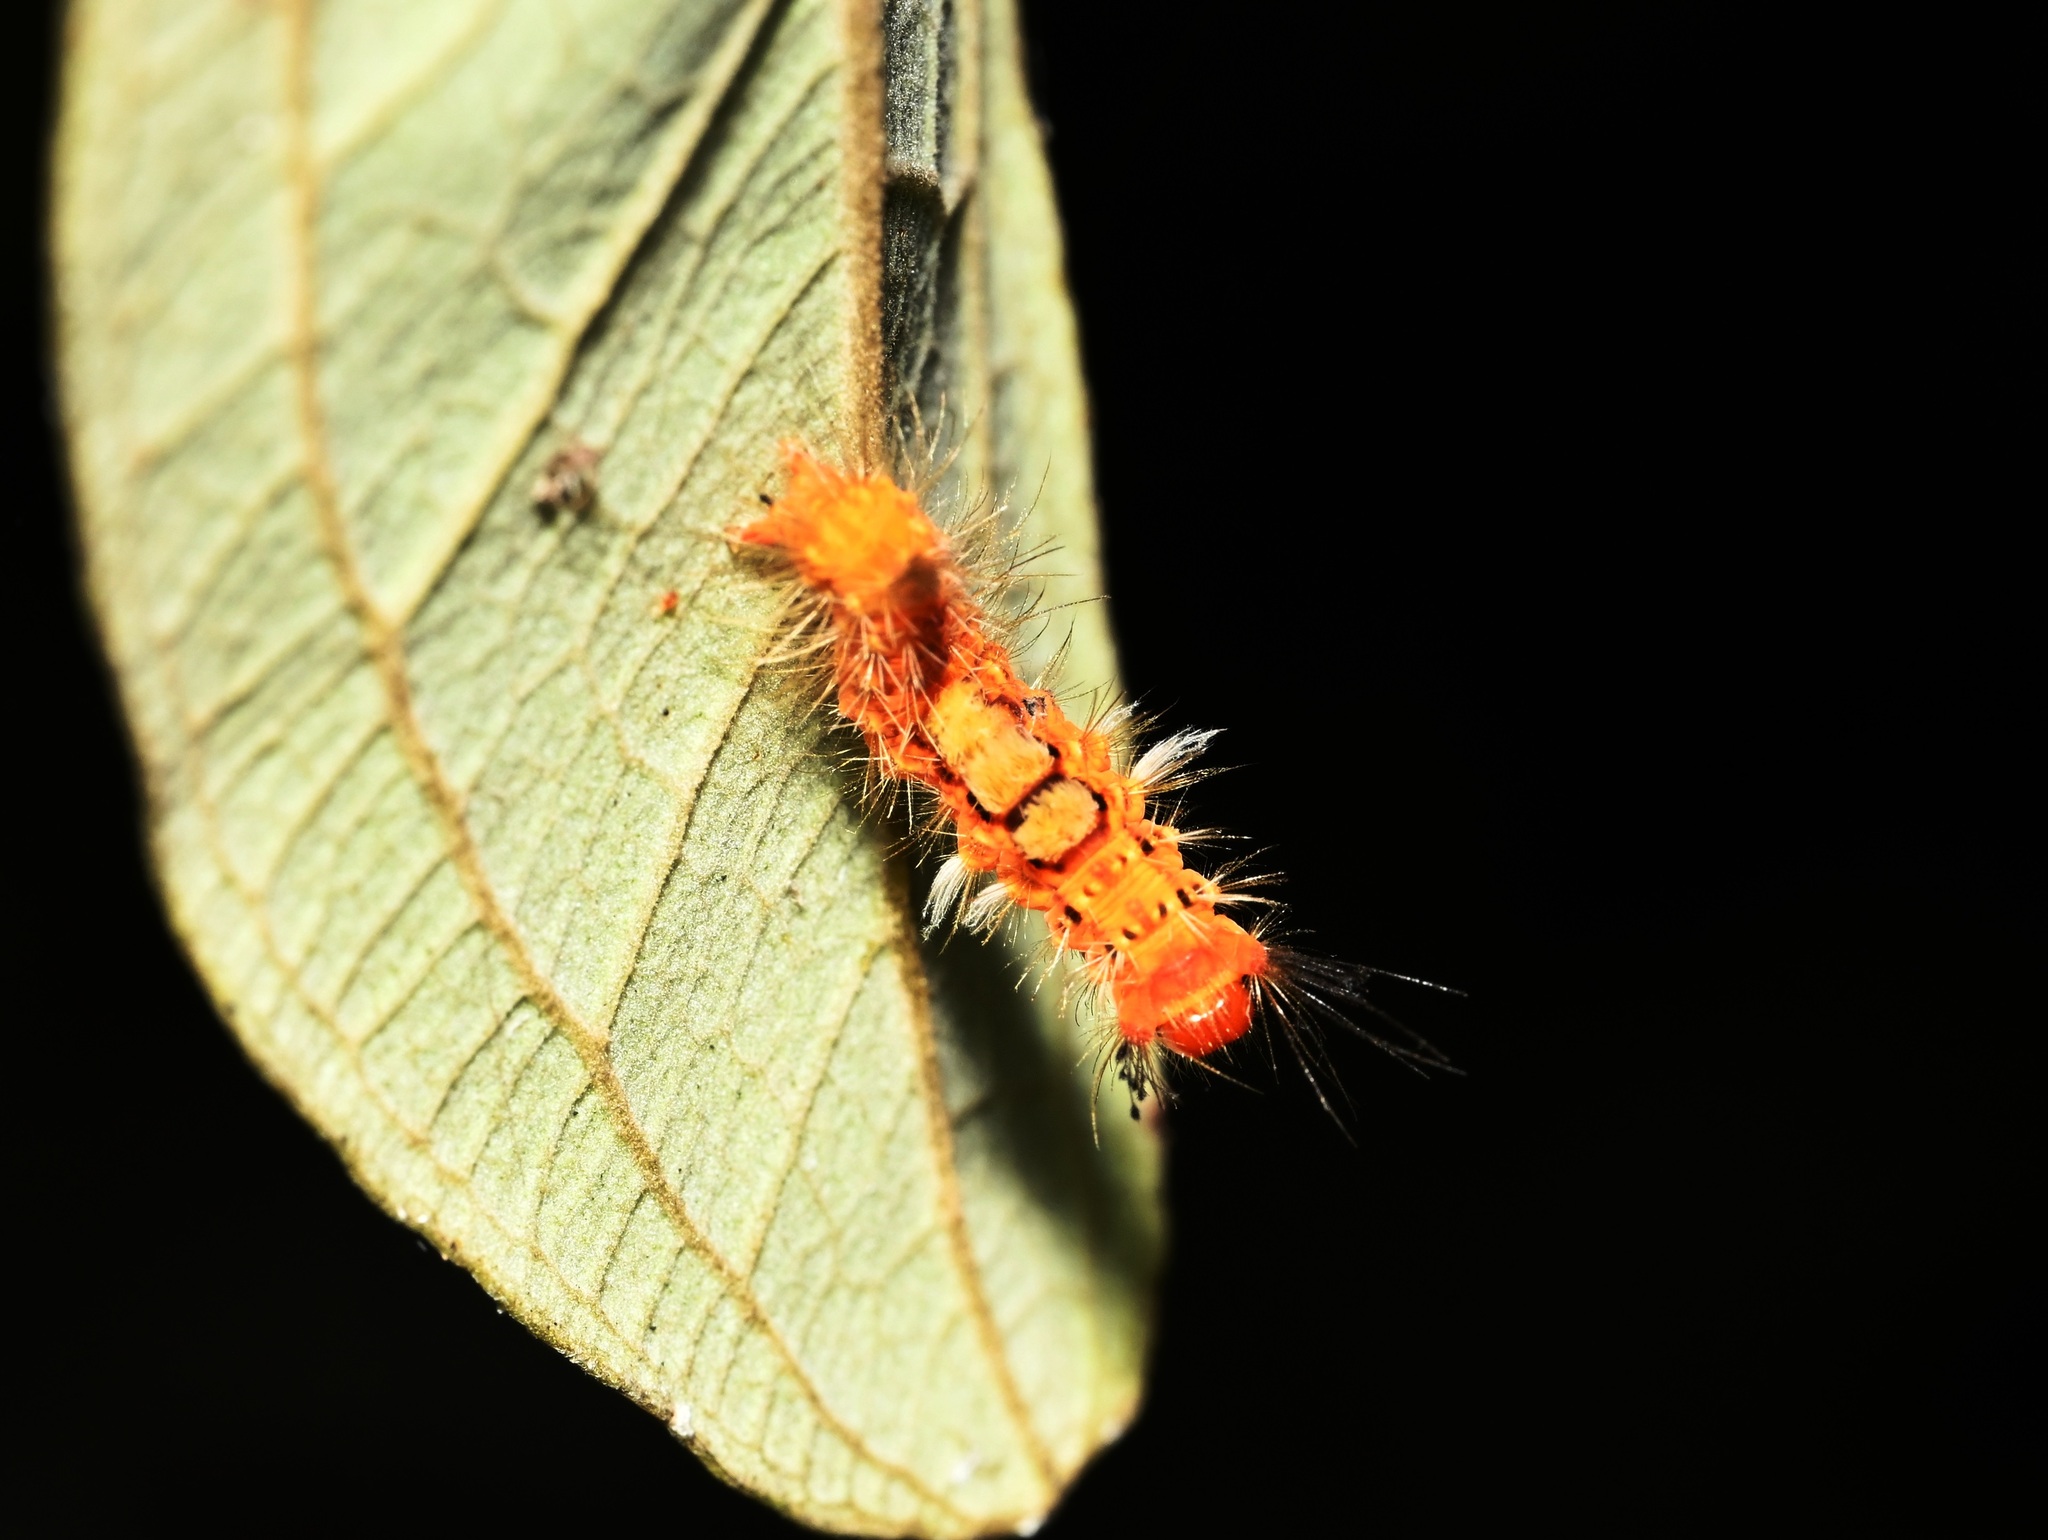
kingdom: Animalia
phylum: Arthropoda
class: Insecta
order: Lepidoptera
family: Erebidae
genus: Orgyia
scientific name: Orgyia postica
